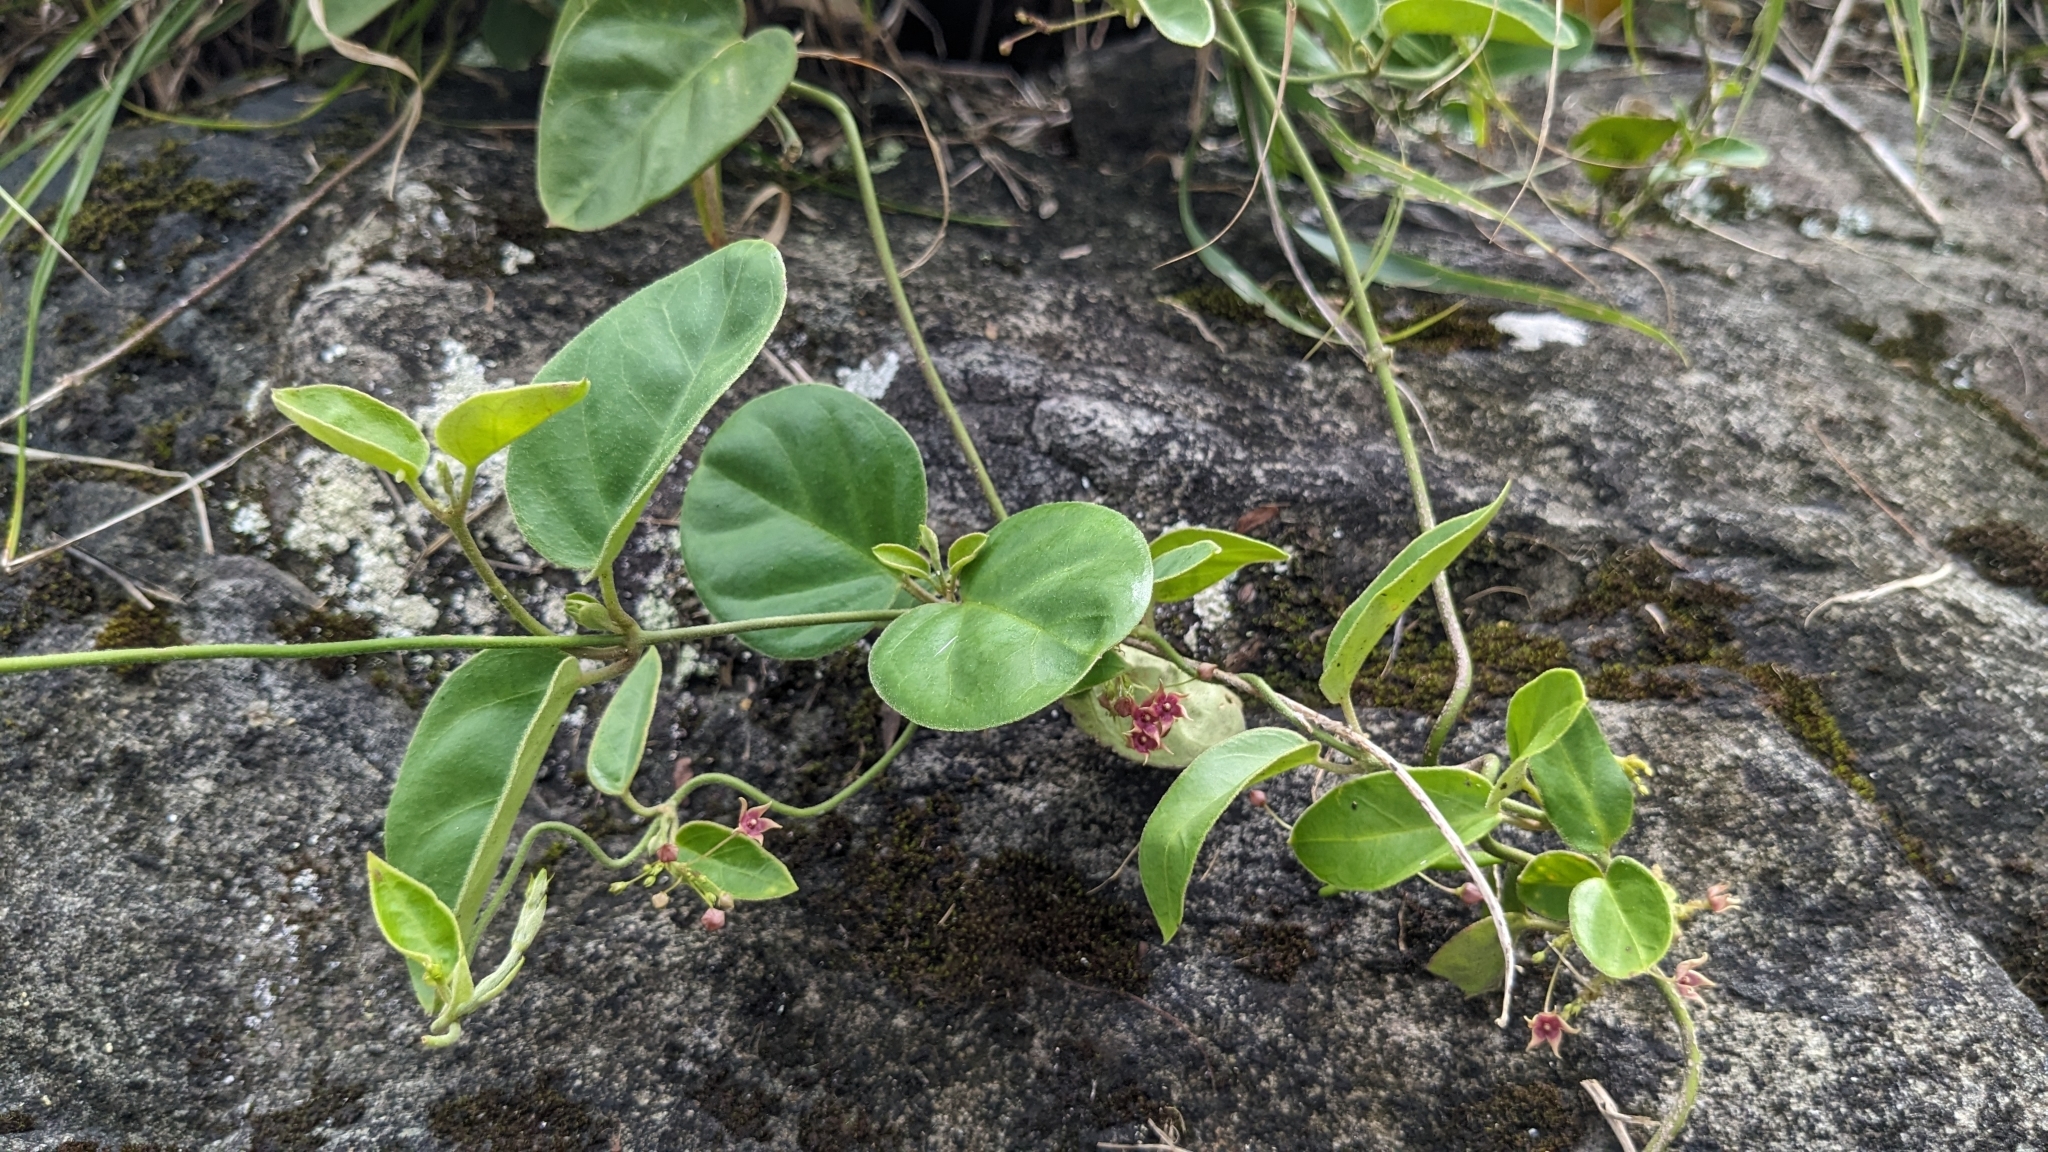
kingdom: Plantae
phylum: Tracheophyta
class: Magnoliopsida
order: Gentianales
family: Apocynaceae
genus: Vincetoxicum
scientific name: Vincetoxicum hirsutum
